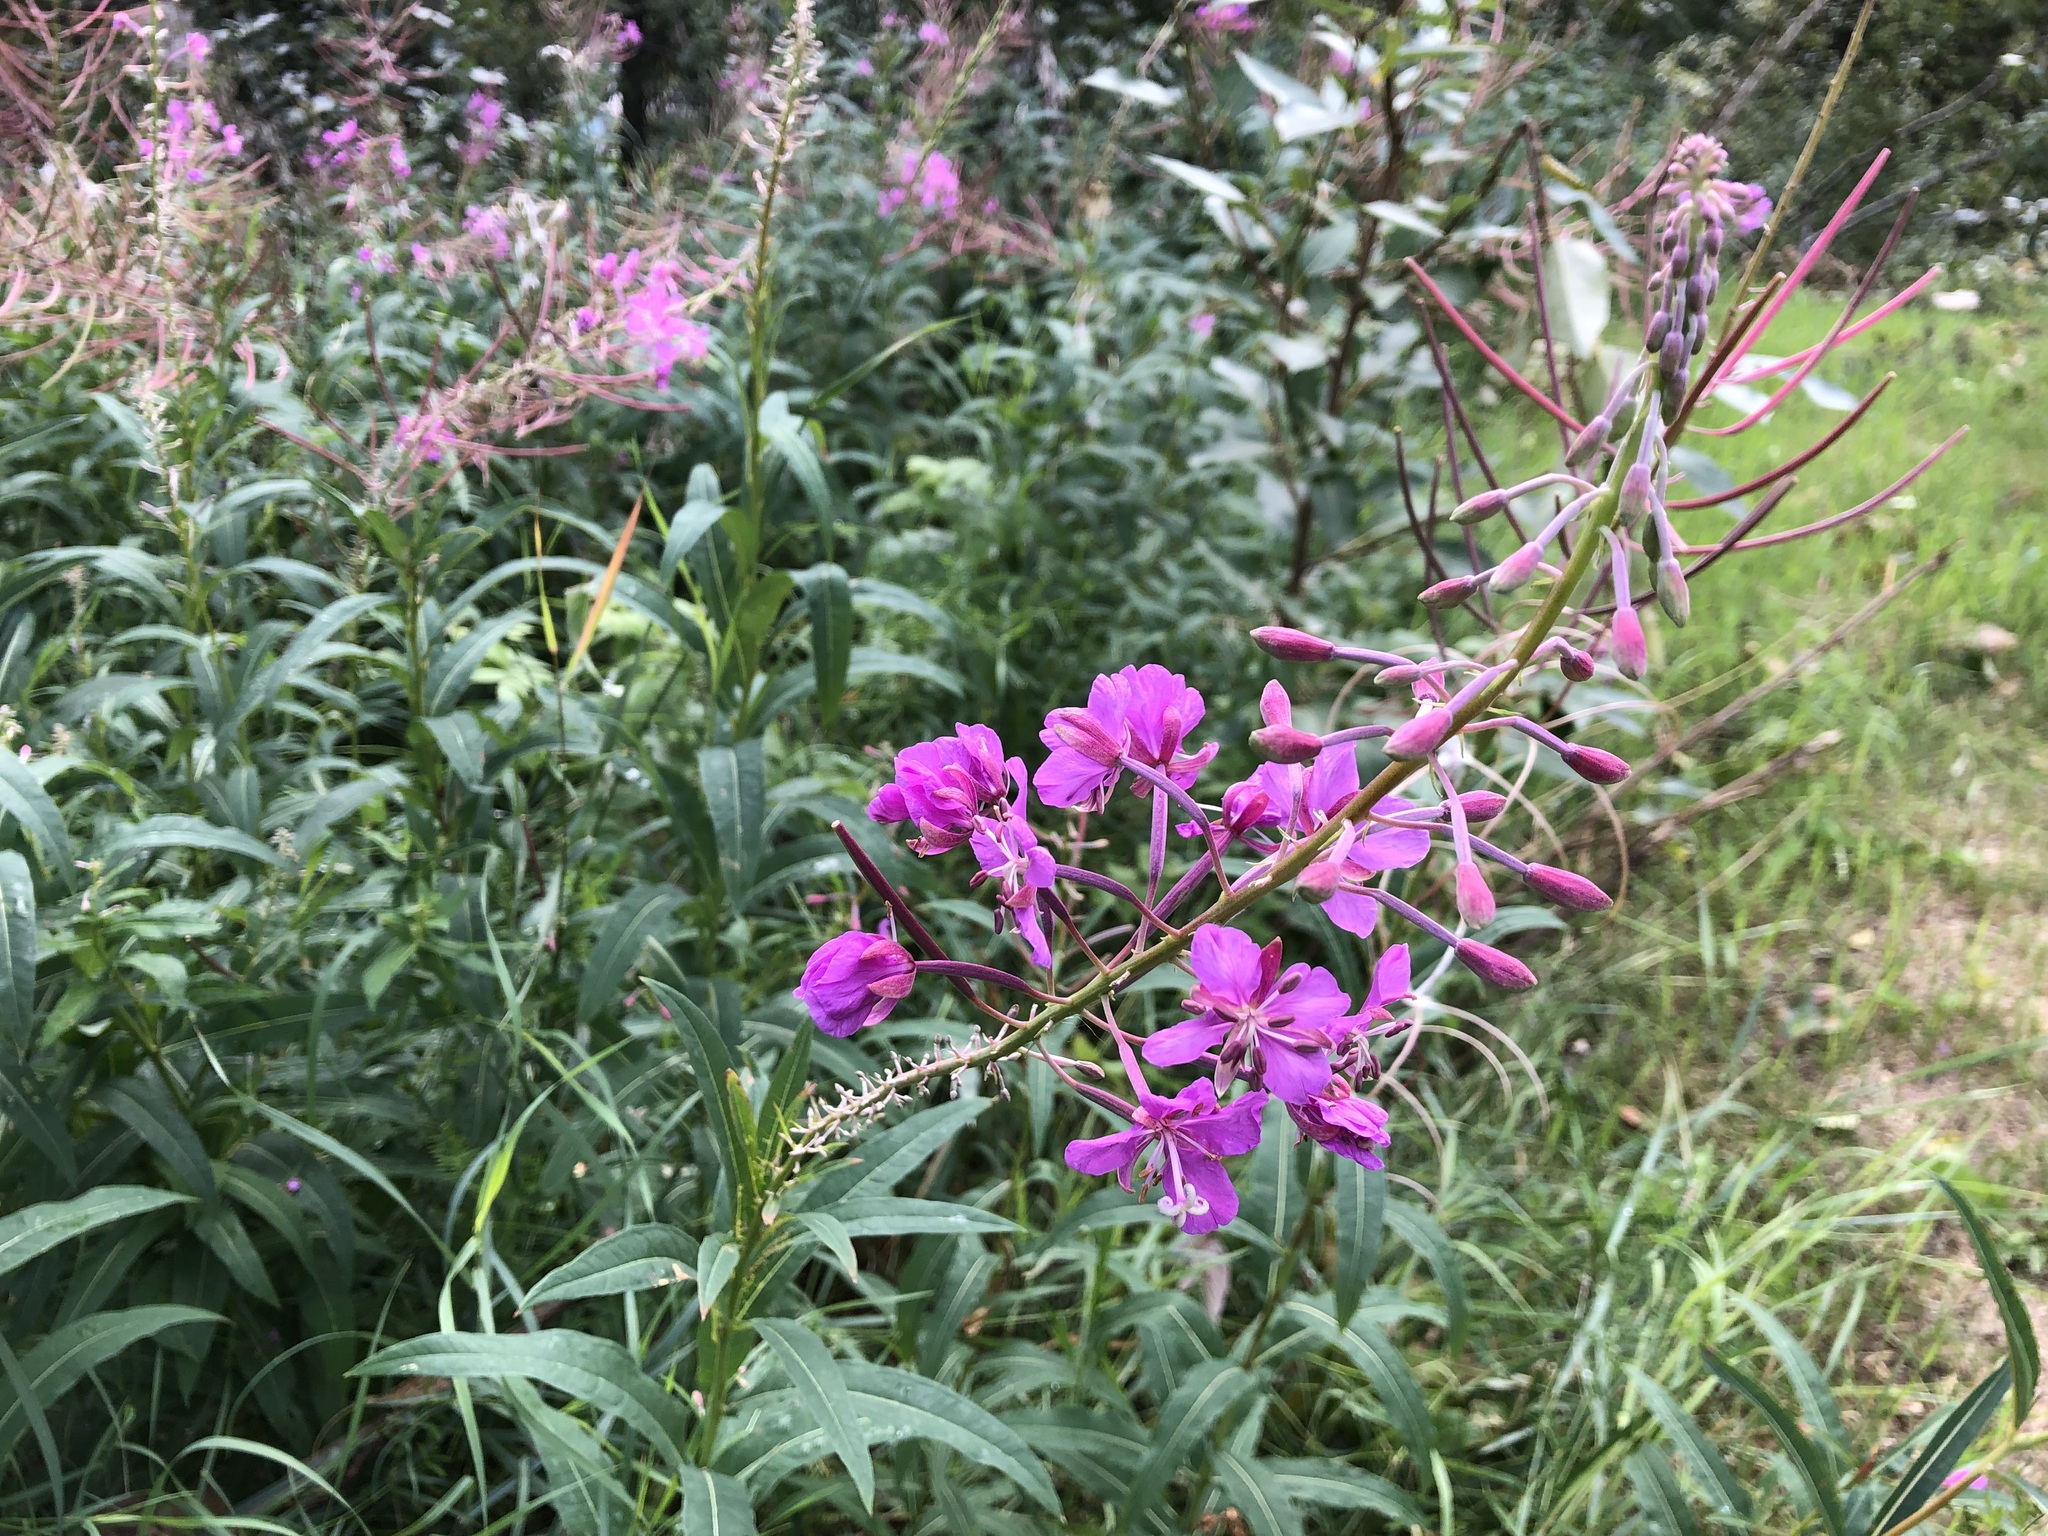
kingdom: Plantae
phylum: Tracheophyta
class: Magnoliopsida
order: Myrtales
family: Onagraceae
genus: Chamaenerion
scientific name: Chamaenerion angustifolium
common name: Fireweed
